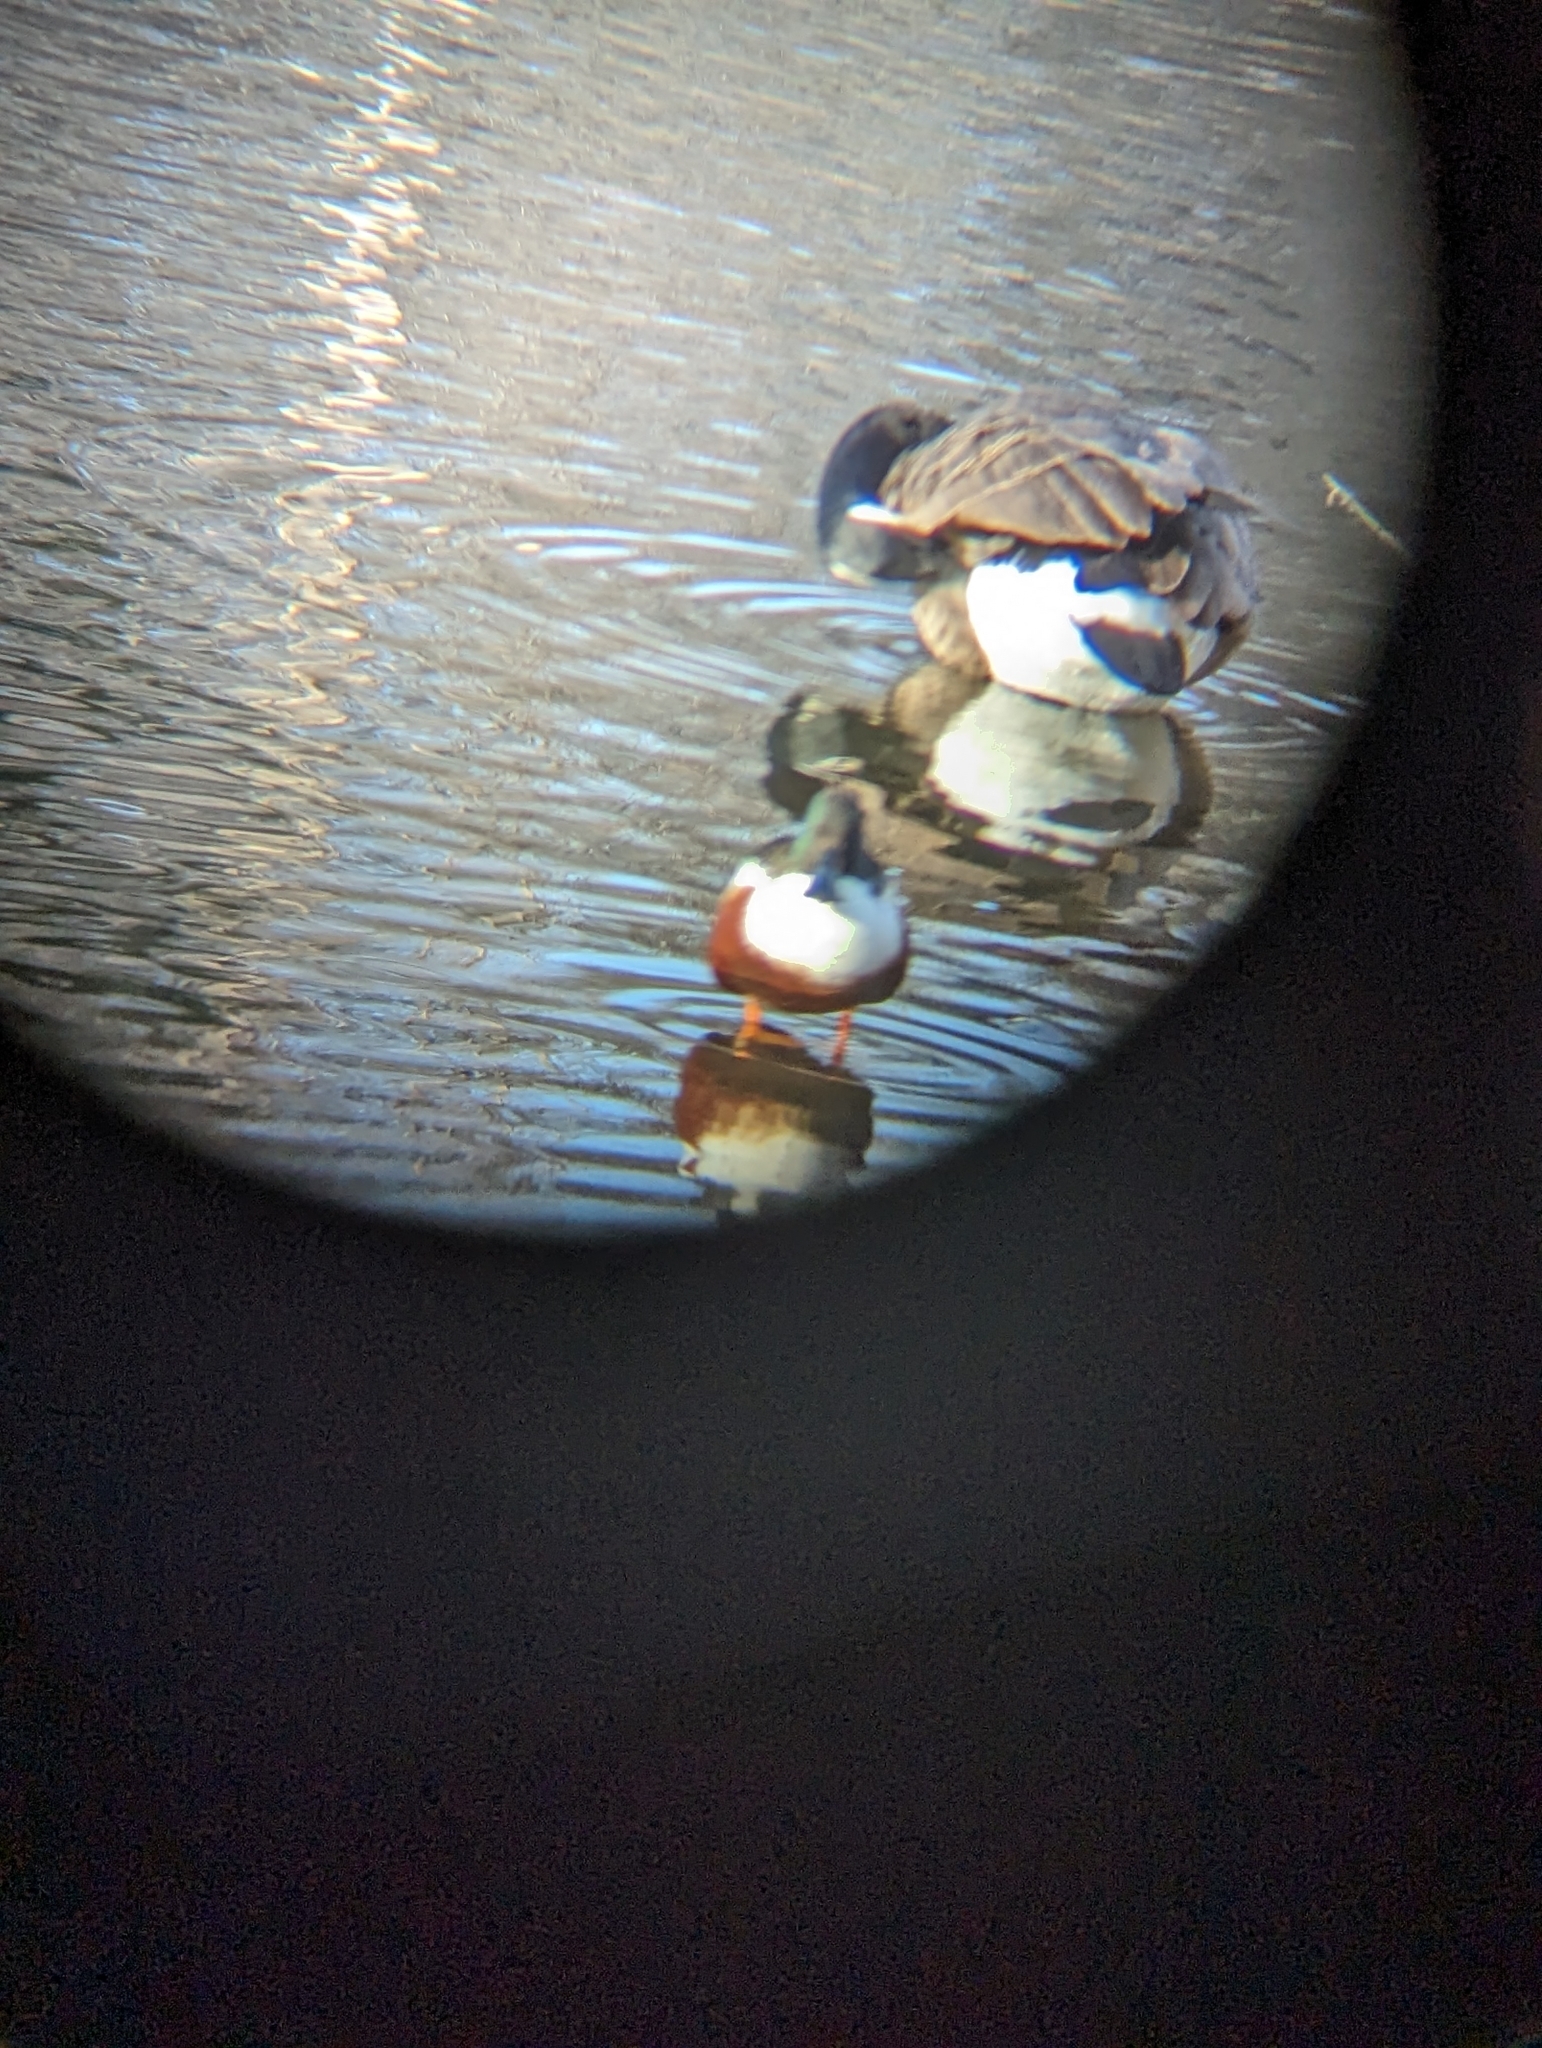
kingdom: Animalia
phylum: Chordata
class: Aves
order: Anseriformes
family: Anatidae
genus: Spatula
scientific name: Spatula clypeata
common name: Northern shoveler
